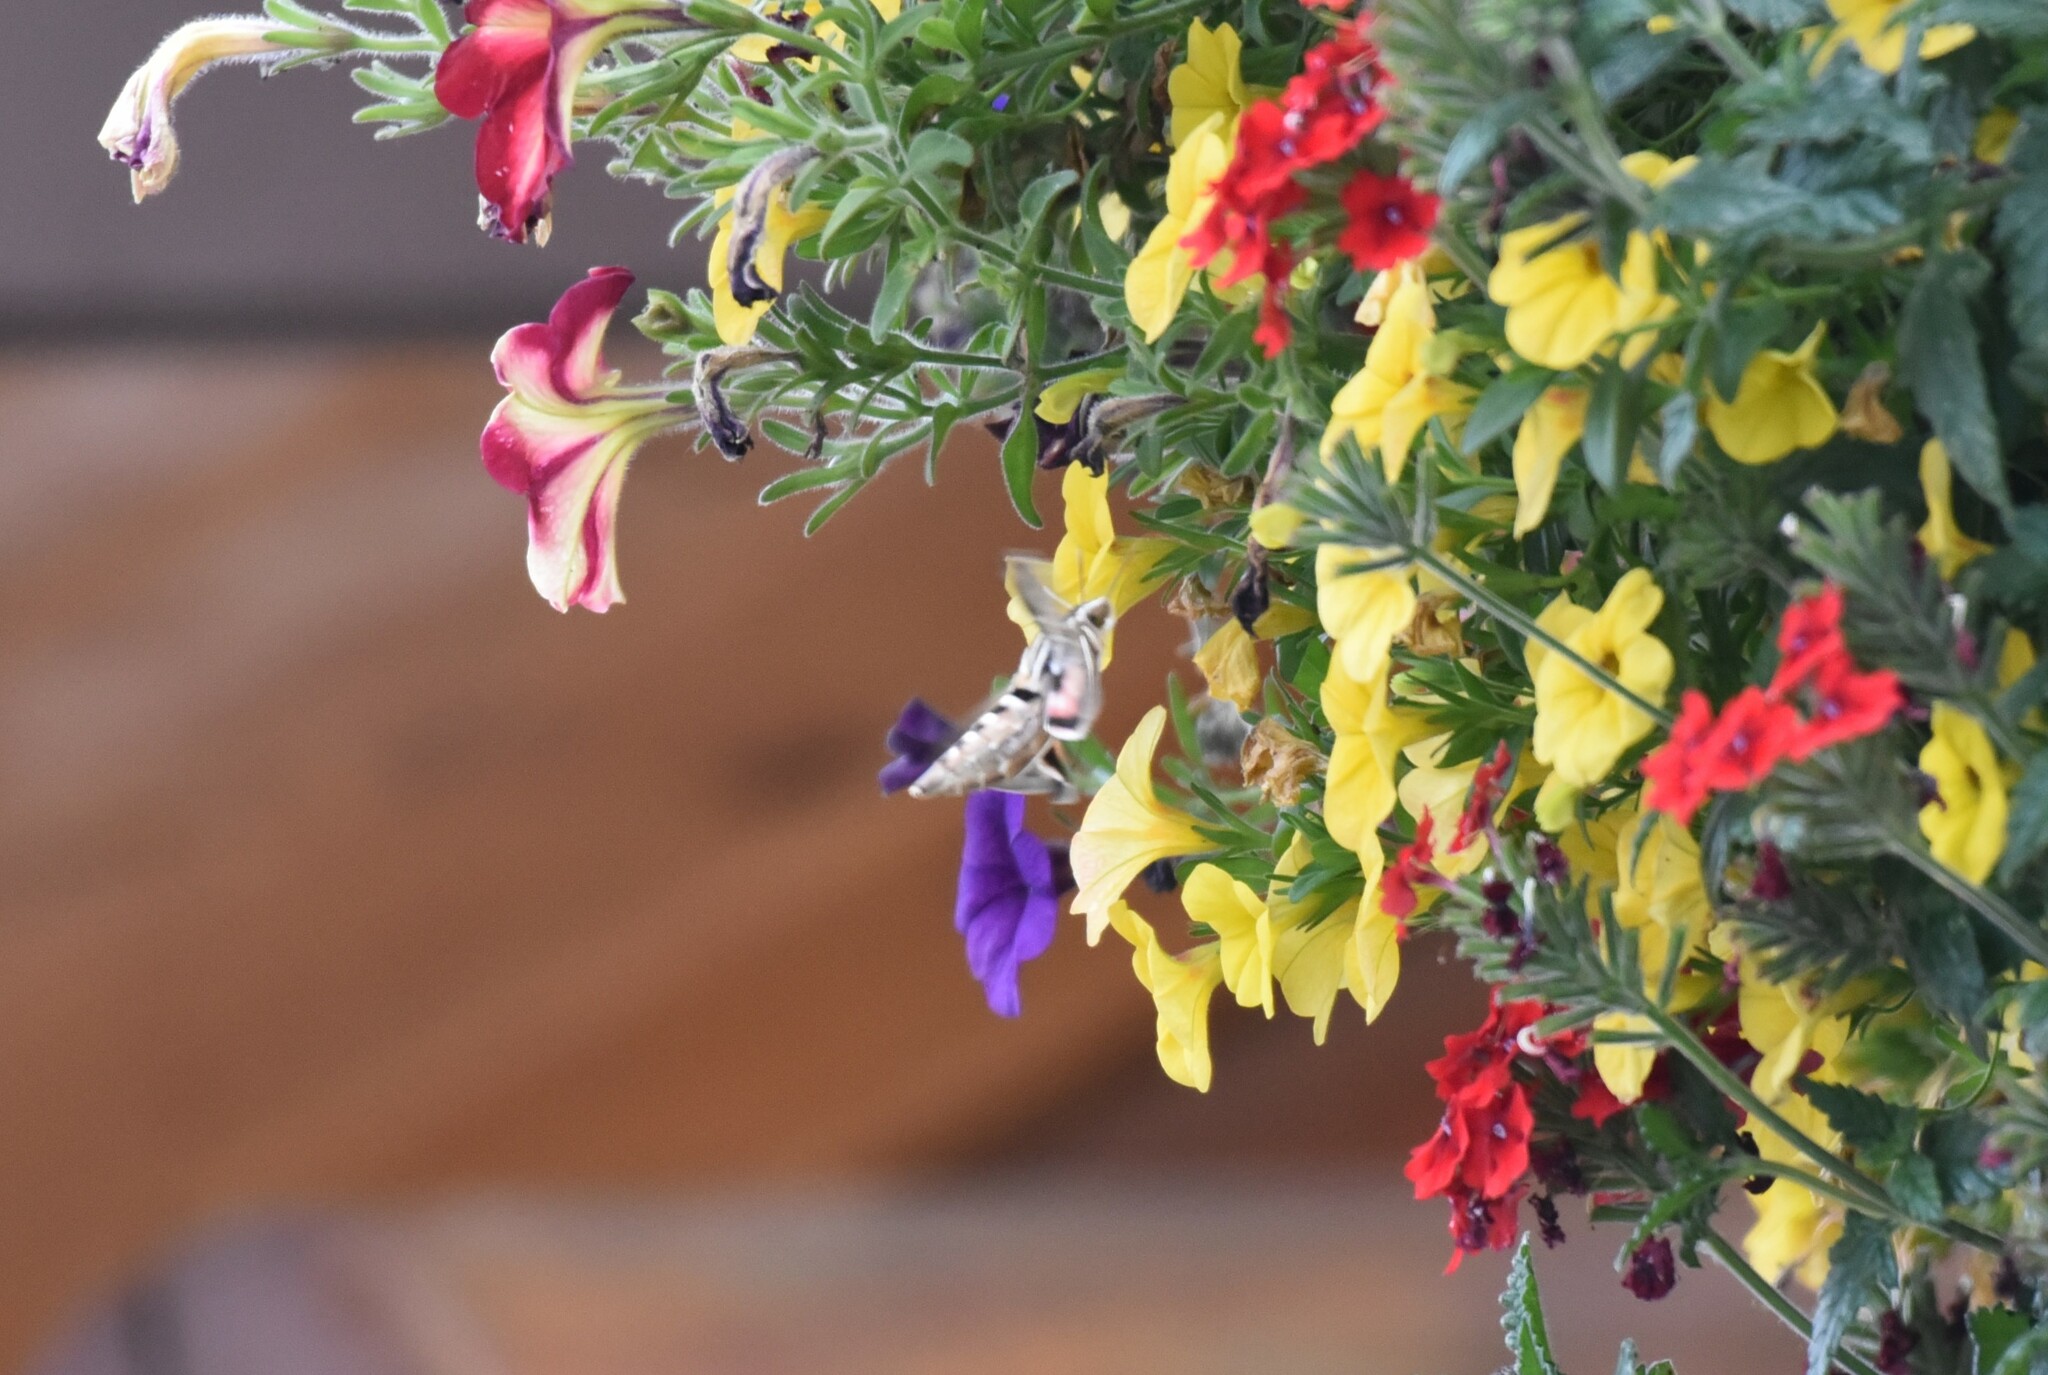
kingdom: Animalia
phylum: Arthropoda
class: Insecta
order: Lepidoptera
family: Sphingidae
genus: Hyles
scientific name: Hyles lineata
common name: White-lined sphinx
